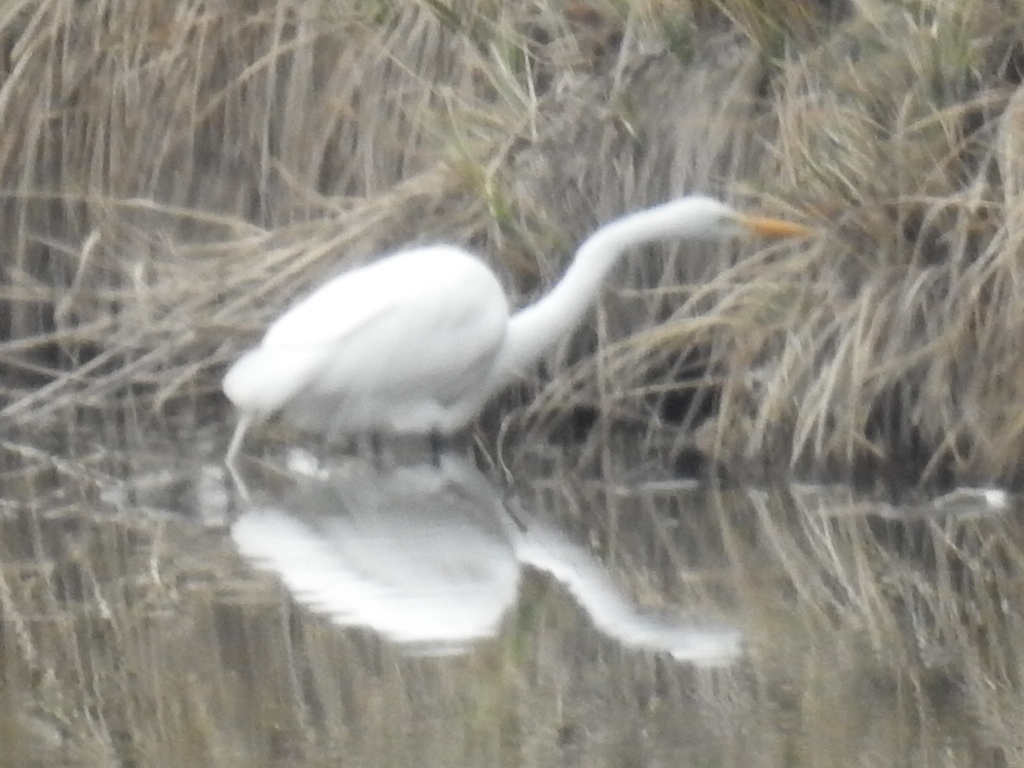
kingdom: Animalia
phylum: Chordata
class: Aves
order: Pelecaniformes
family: Ardeidae
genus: Ardea
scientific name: Ardea alba
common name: Great egret
